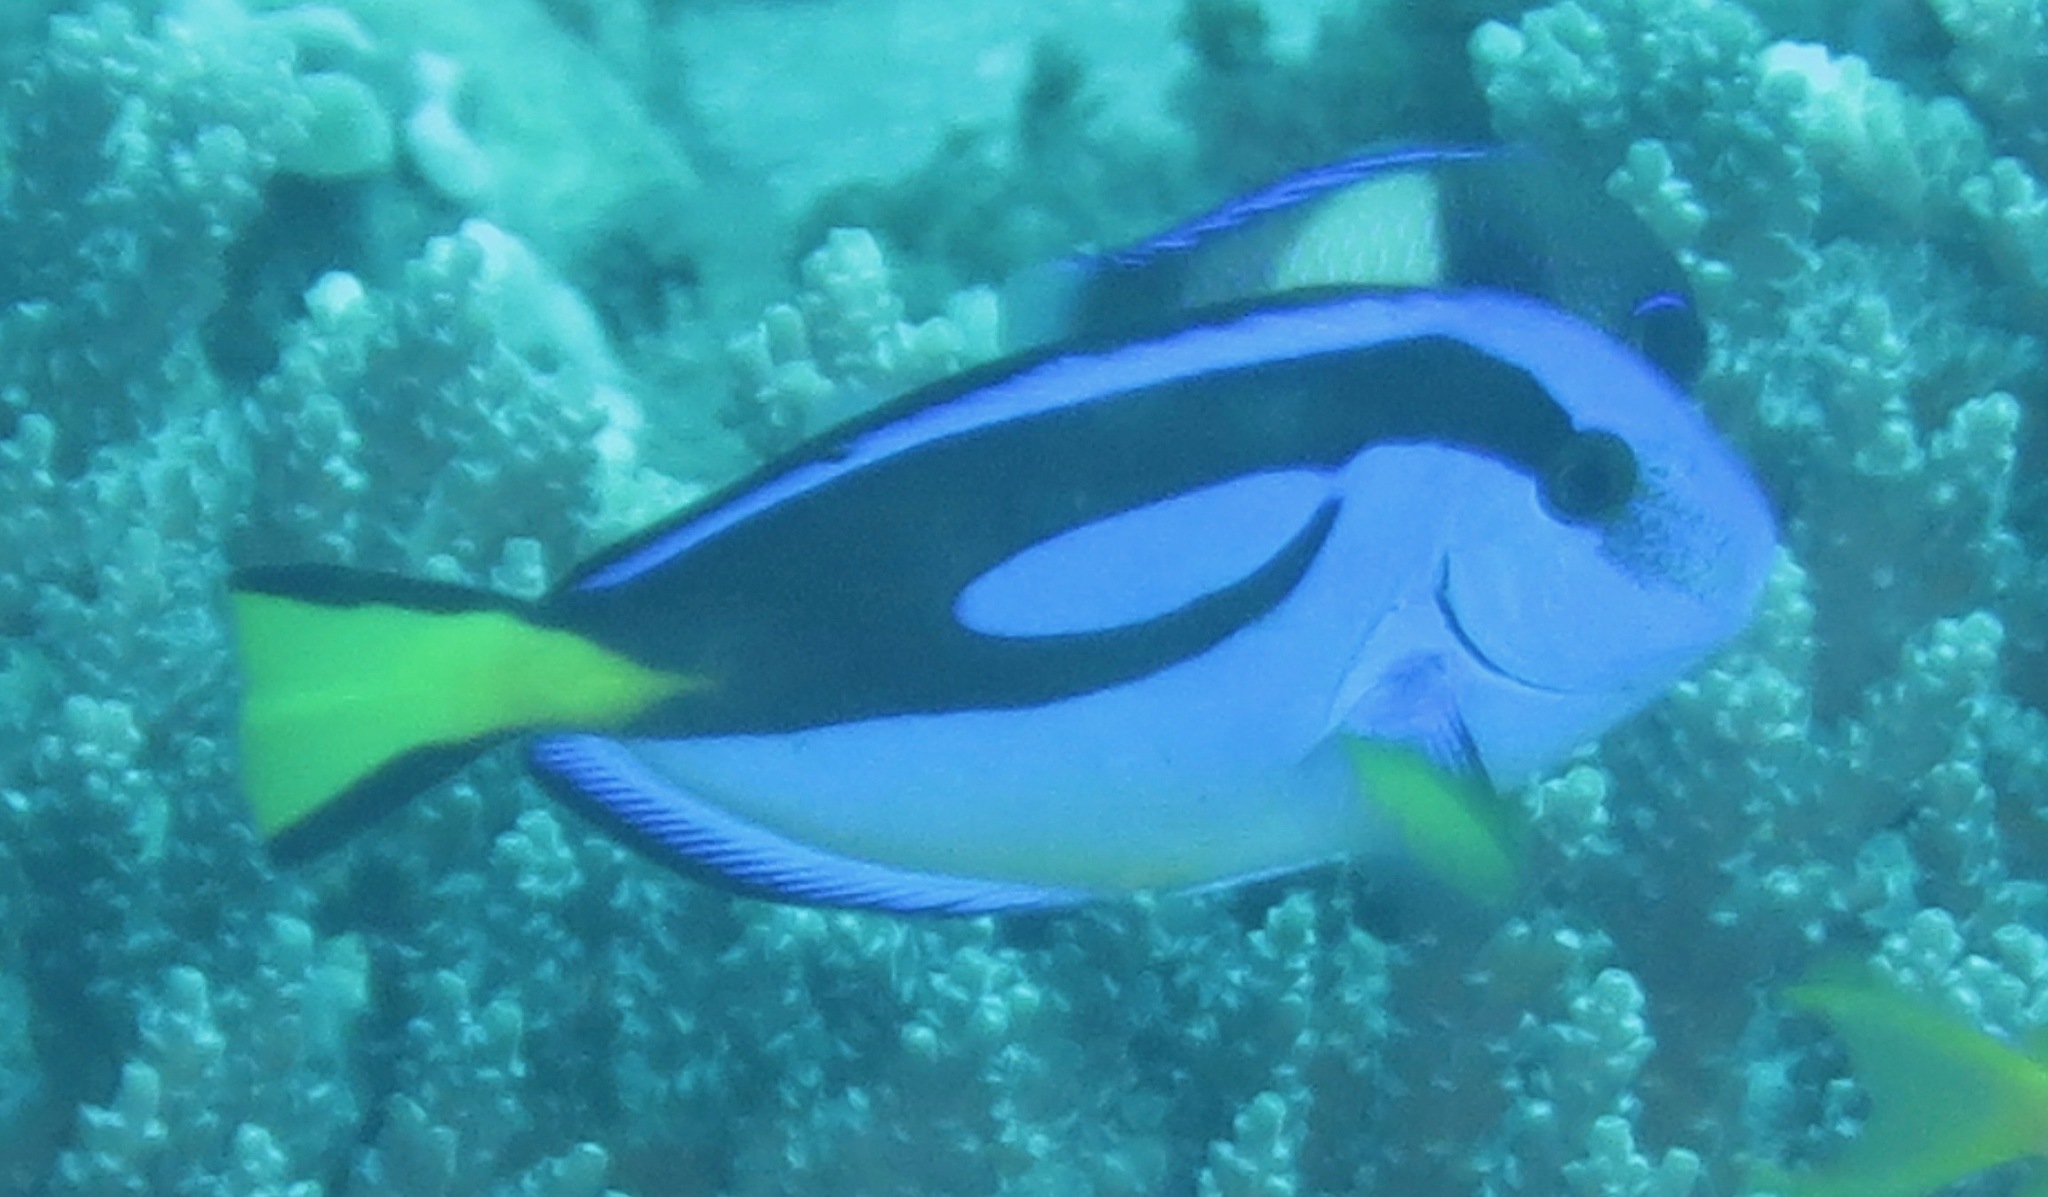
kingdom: Animalia
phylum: Chordata
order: Perciformes
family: Acanthuridae
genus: Paracanthurus
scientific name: Paracanthurus hepatus
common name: Palette surgeonfish
